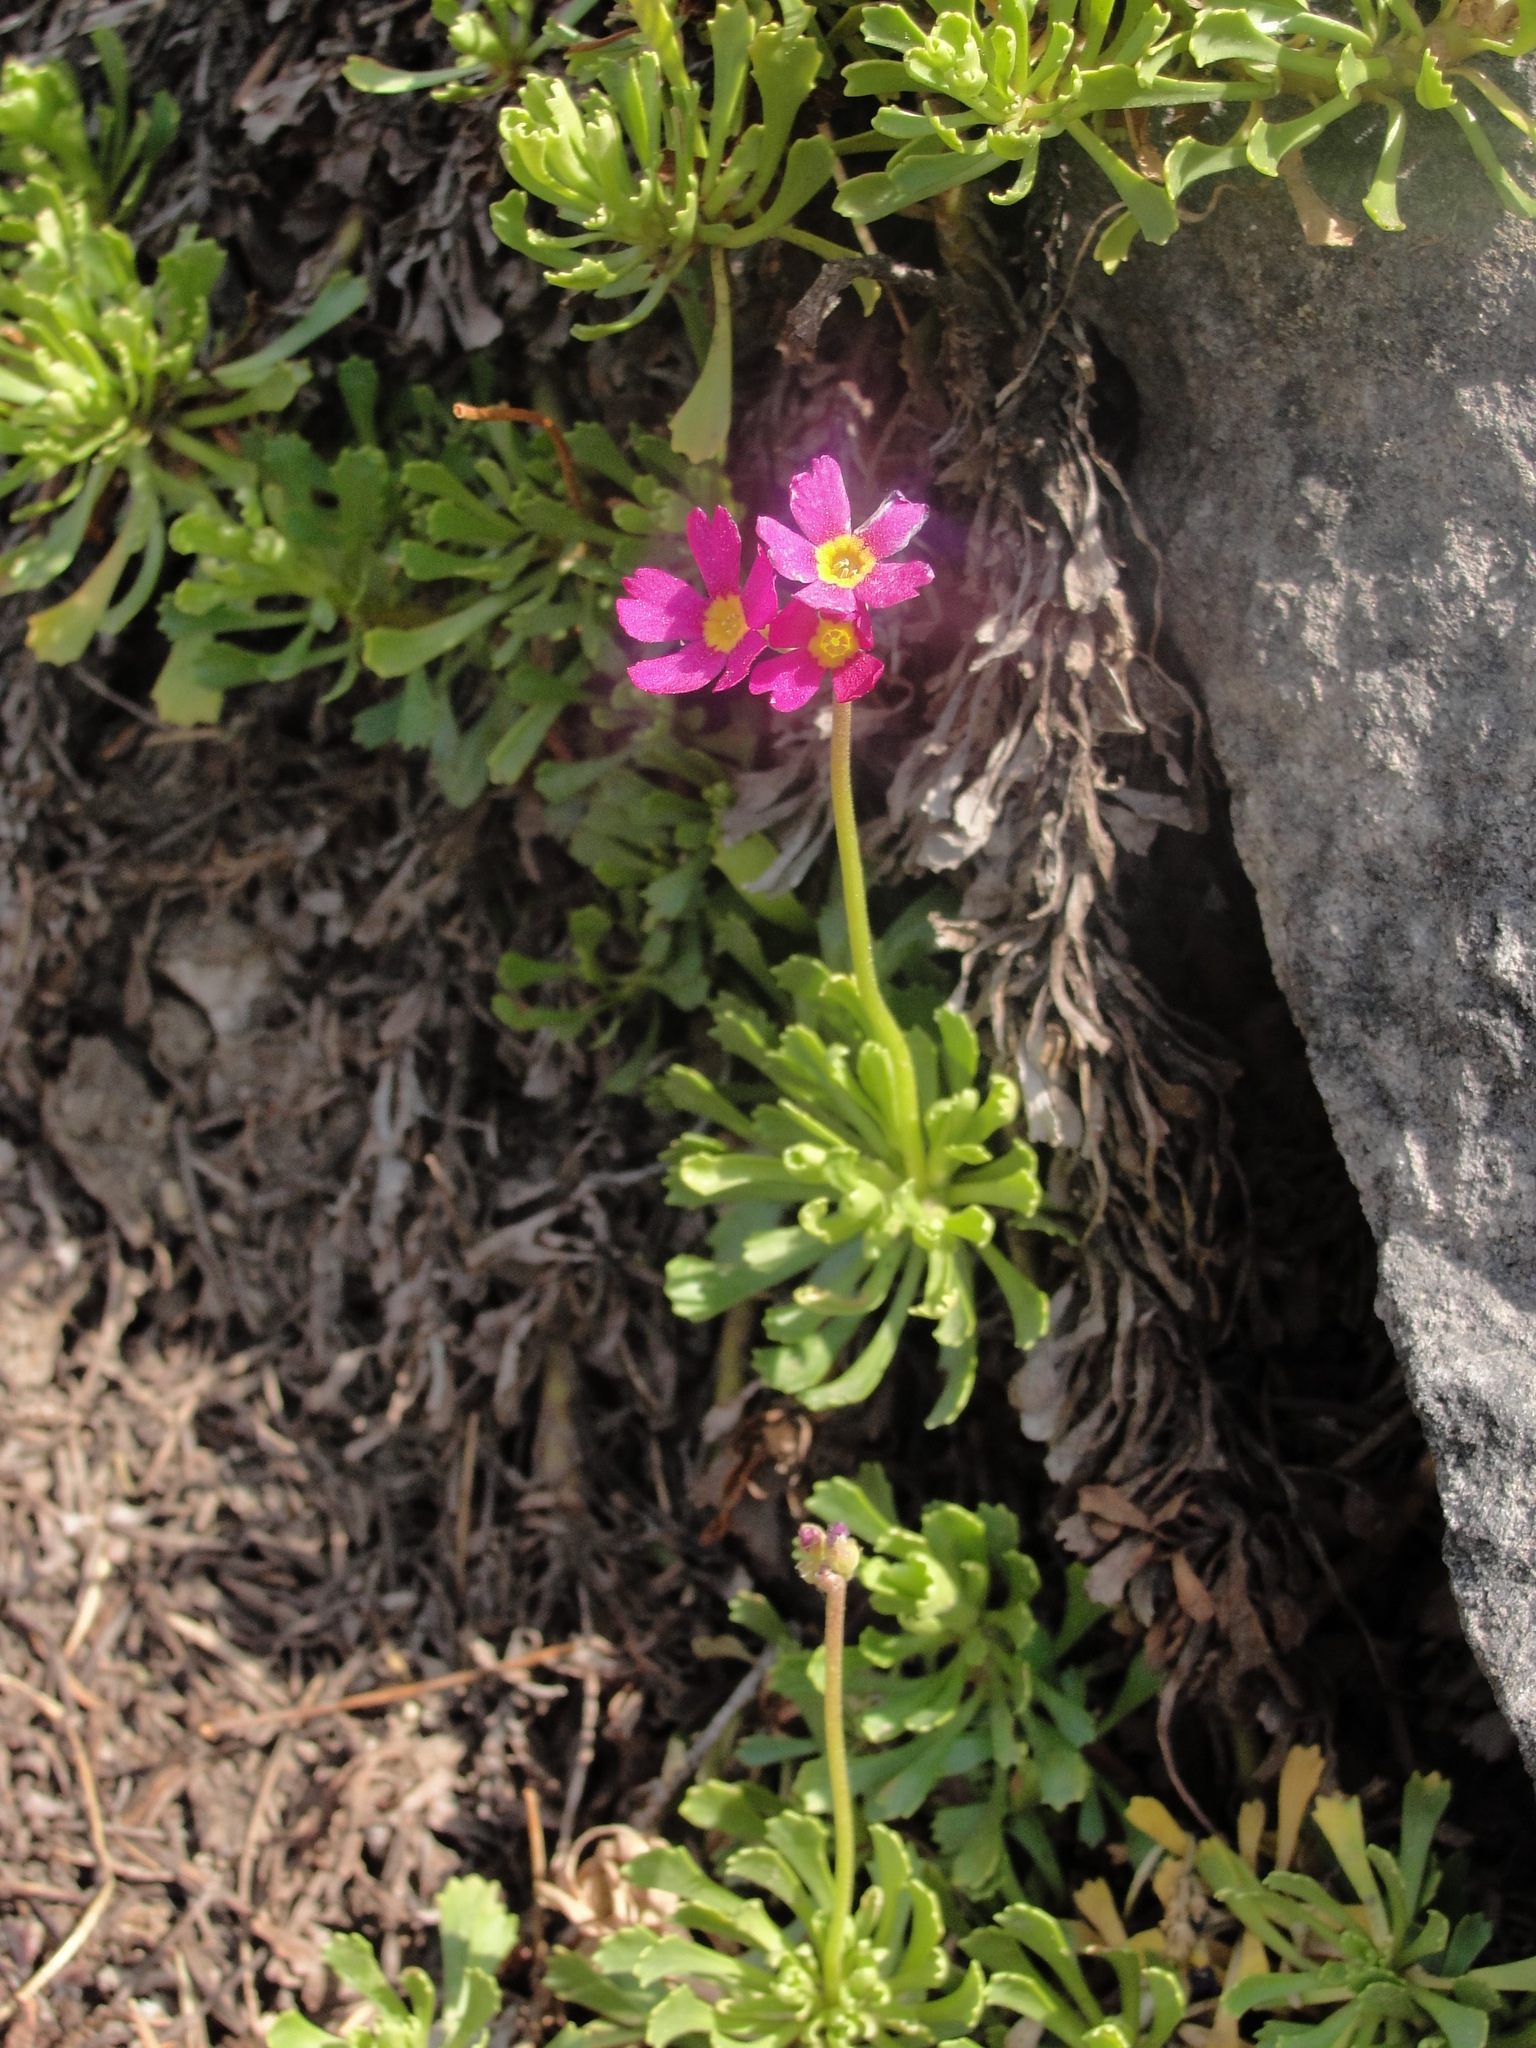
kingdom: Plantae
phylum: Tracheophyta
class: Magnoliopsida
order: Ericales
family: Primulaceae
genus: Primula
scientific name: Primula suffrutescens
